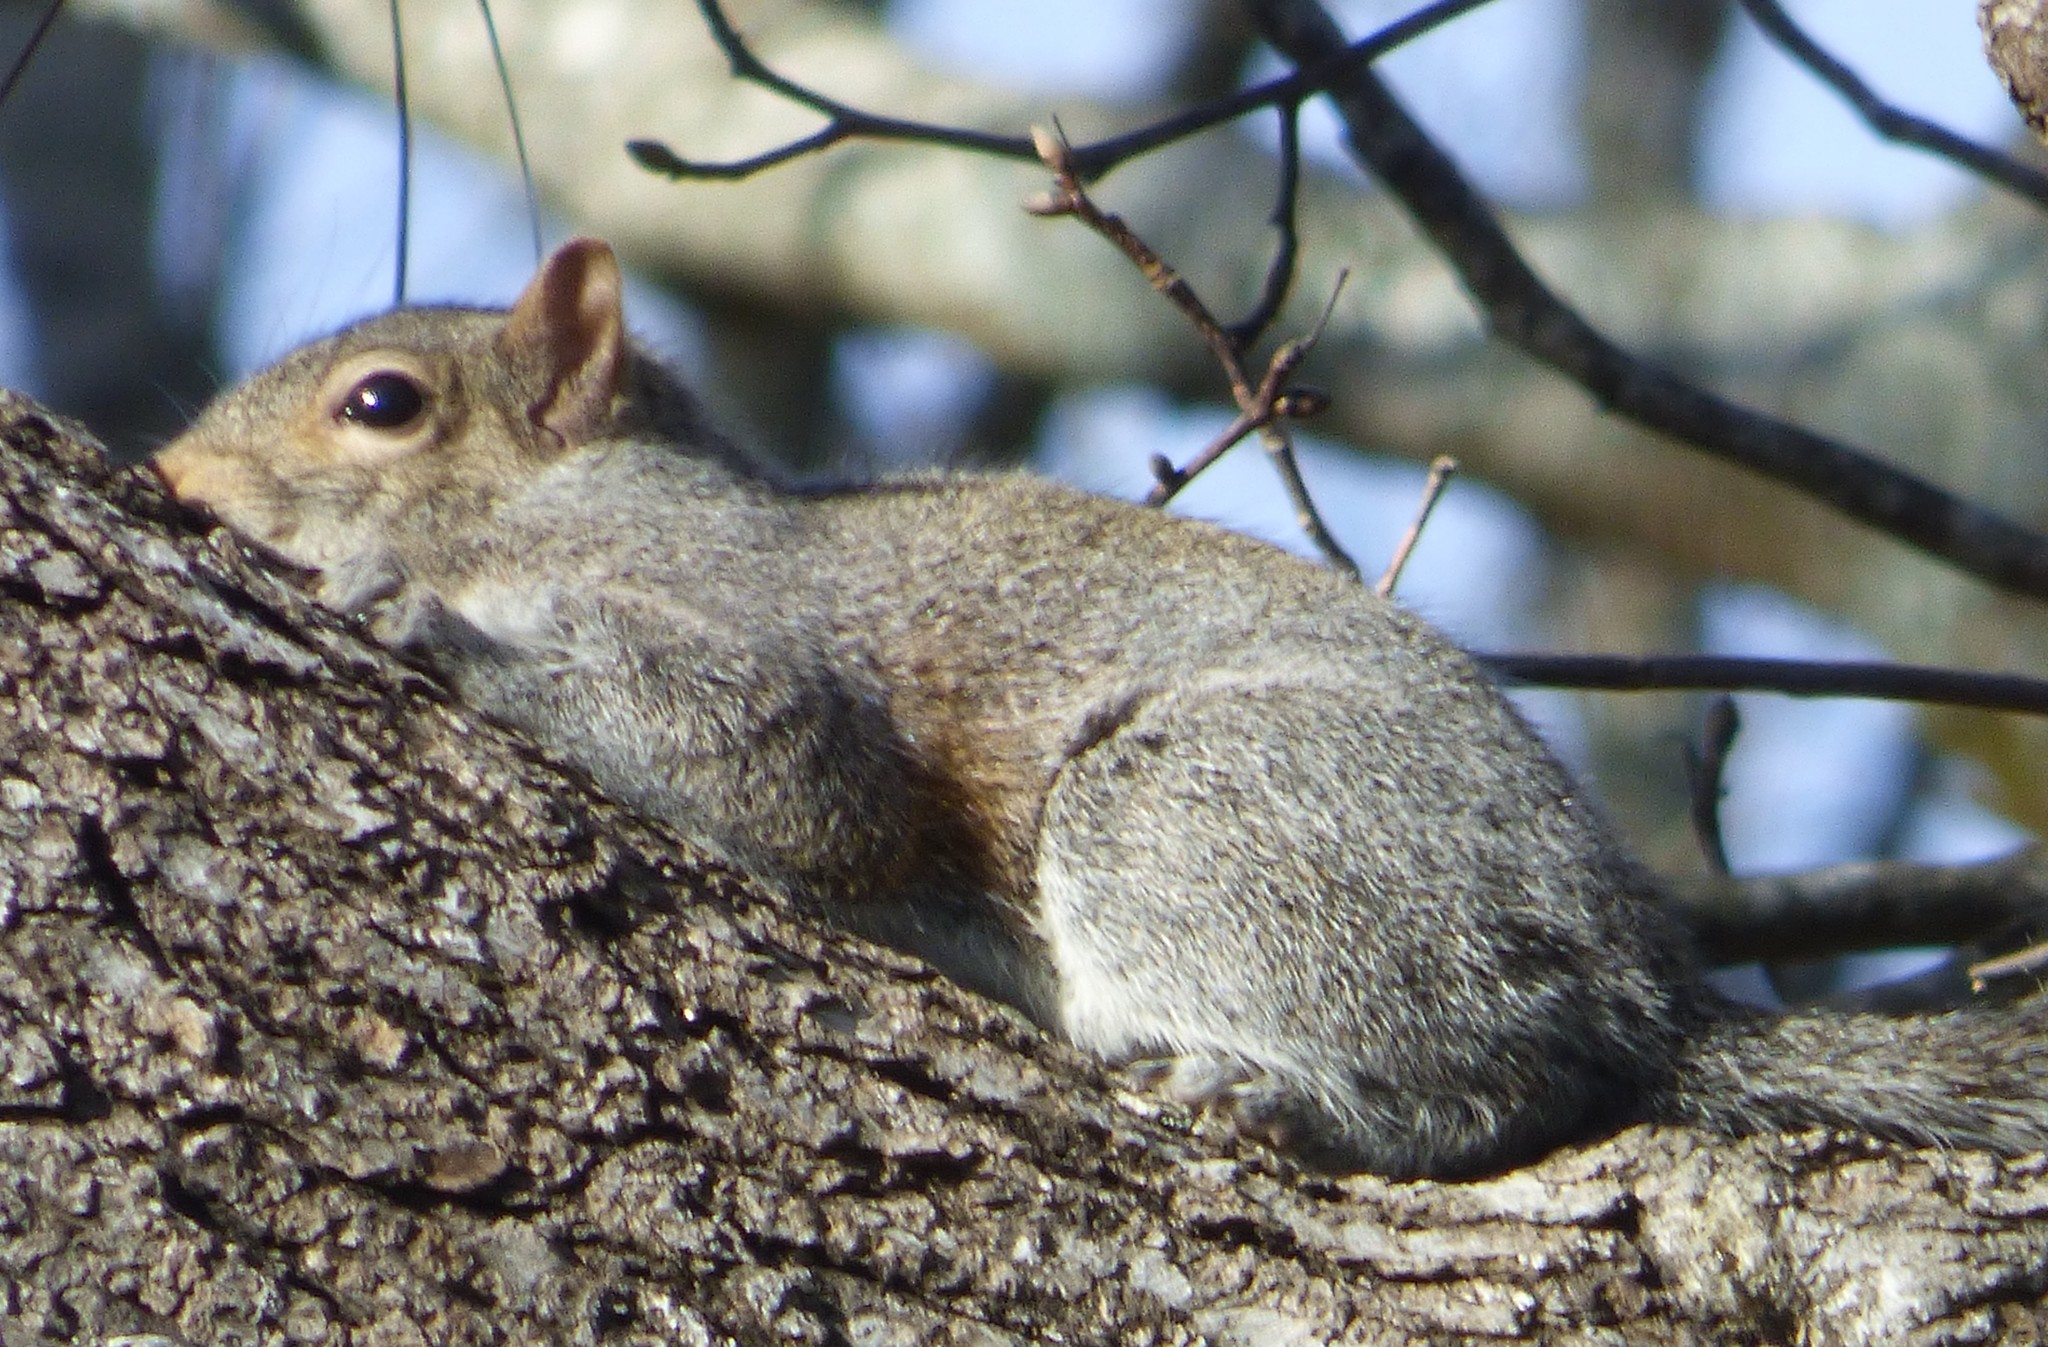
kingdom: Animalia
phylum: Chordata
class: Mammalia
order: Rodentia
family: Sciuridae
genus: Sciurus
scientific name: Sciurus carolinensis
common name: Eastern gray squirrel
